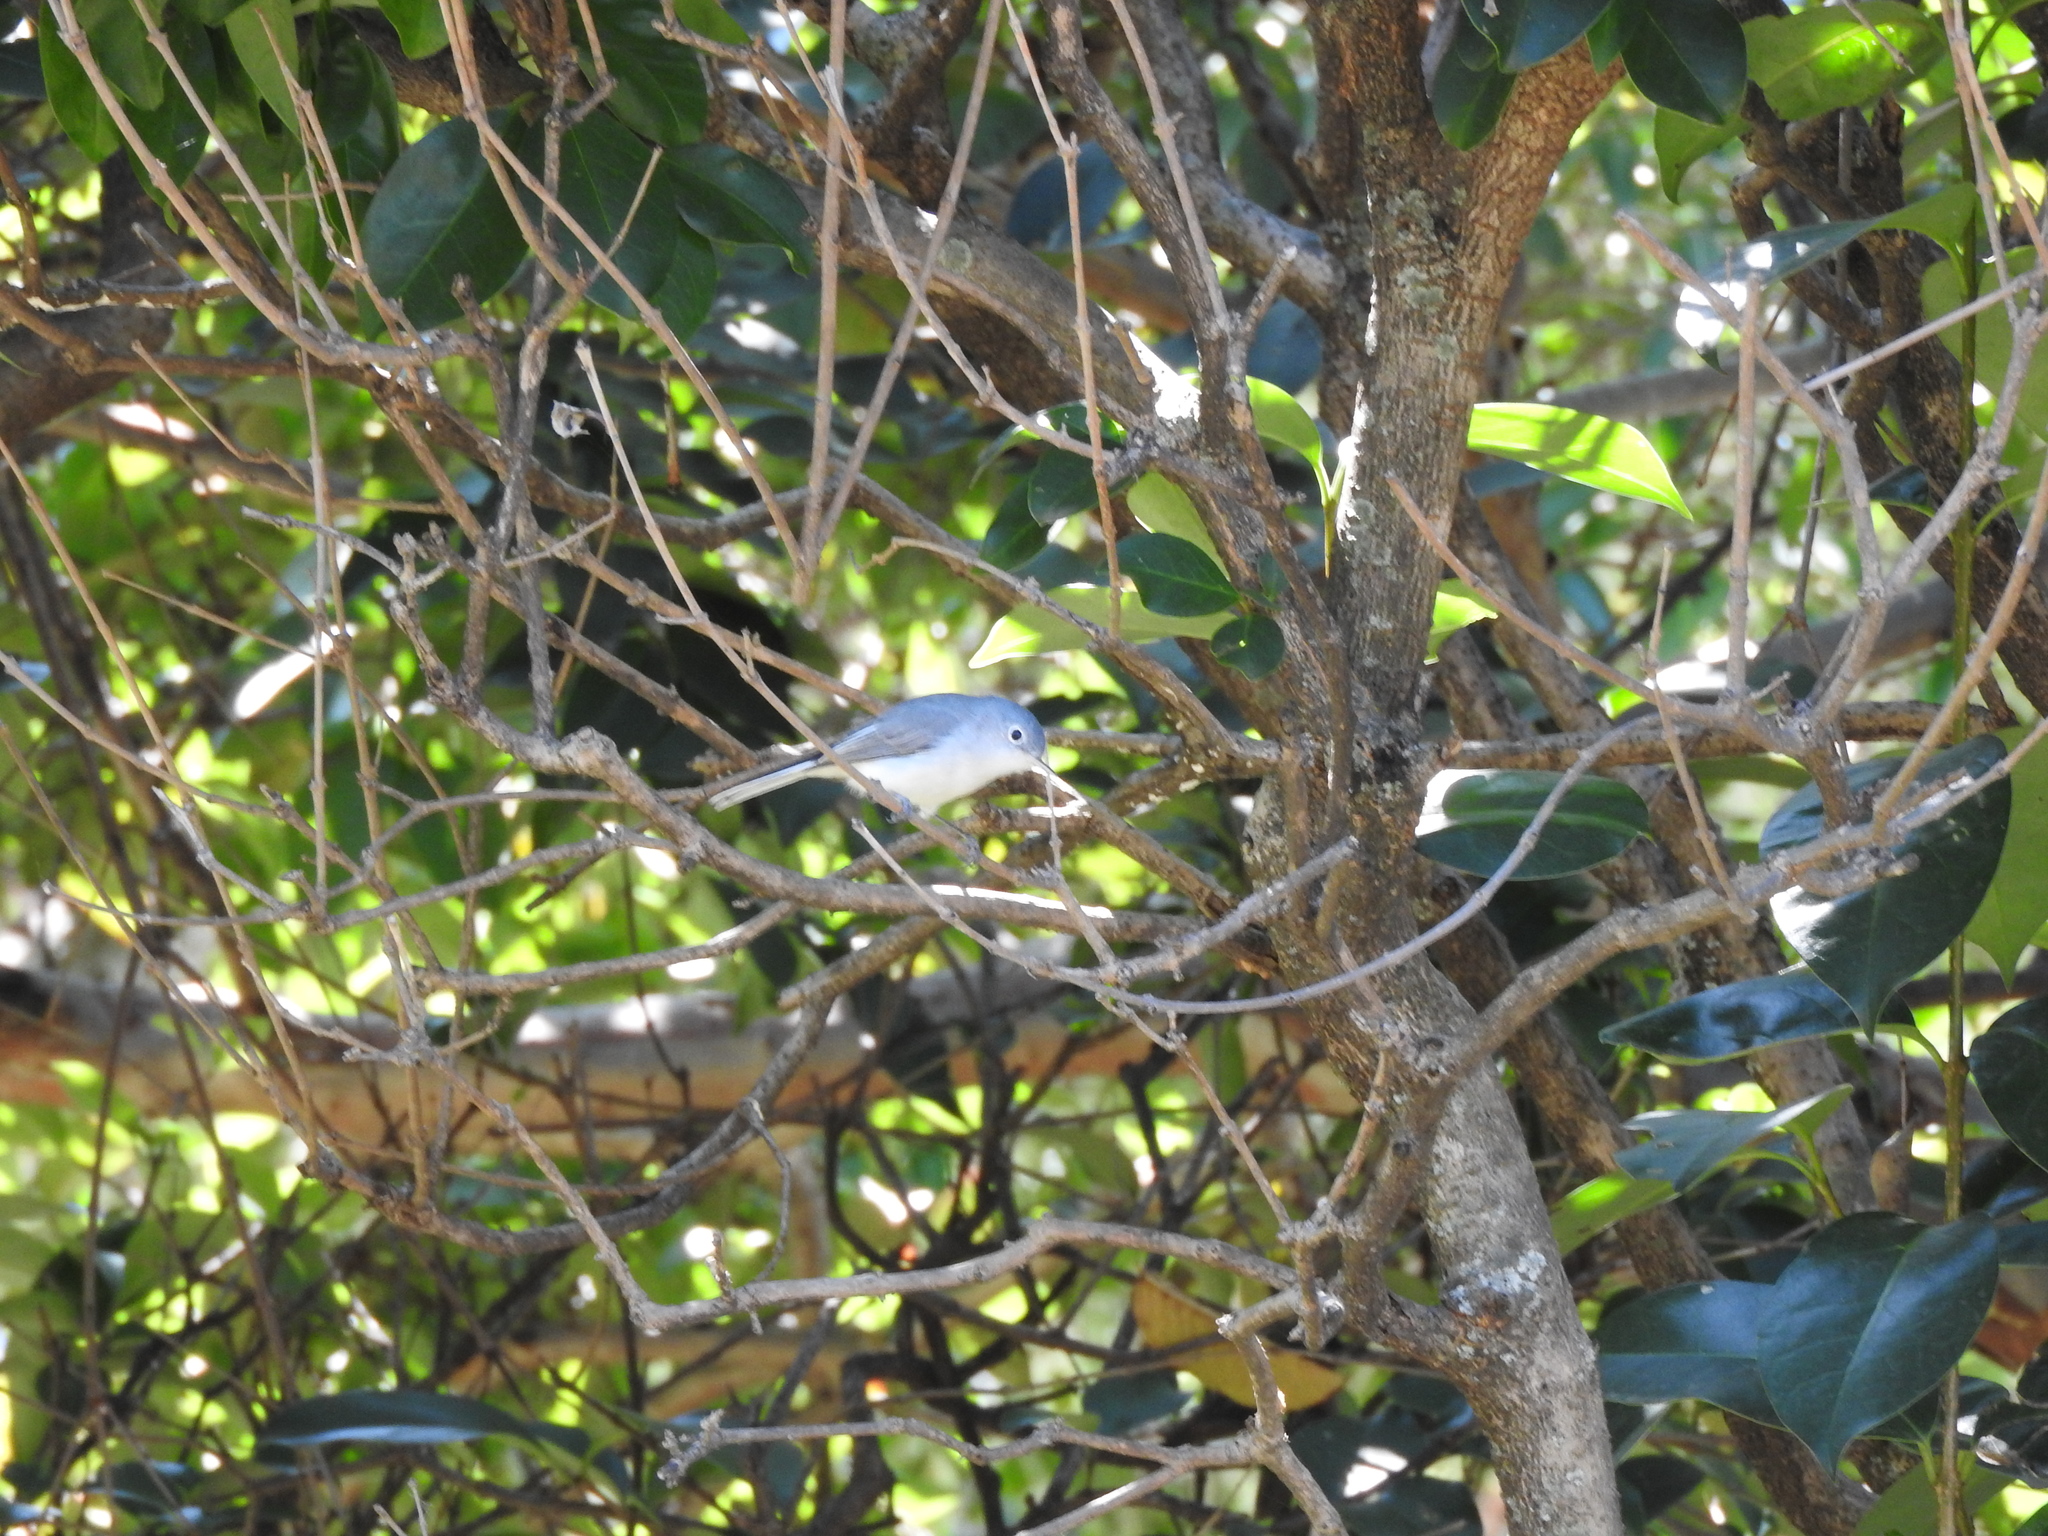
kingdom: Animalia
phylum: Chordata
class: Aves
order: Passeriformes
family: Polioptilidae
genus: Polioptila
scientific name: Polioptila caerulea
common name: Blue-gray gnatcatcher
